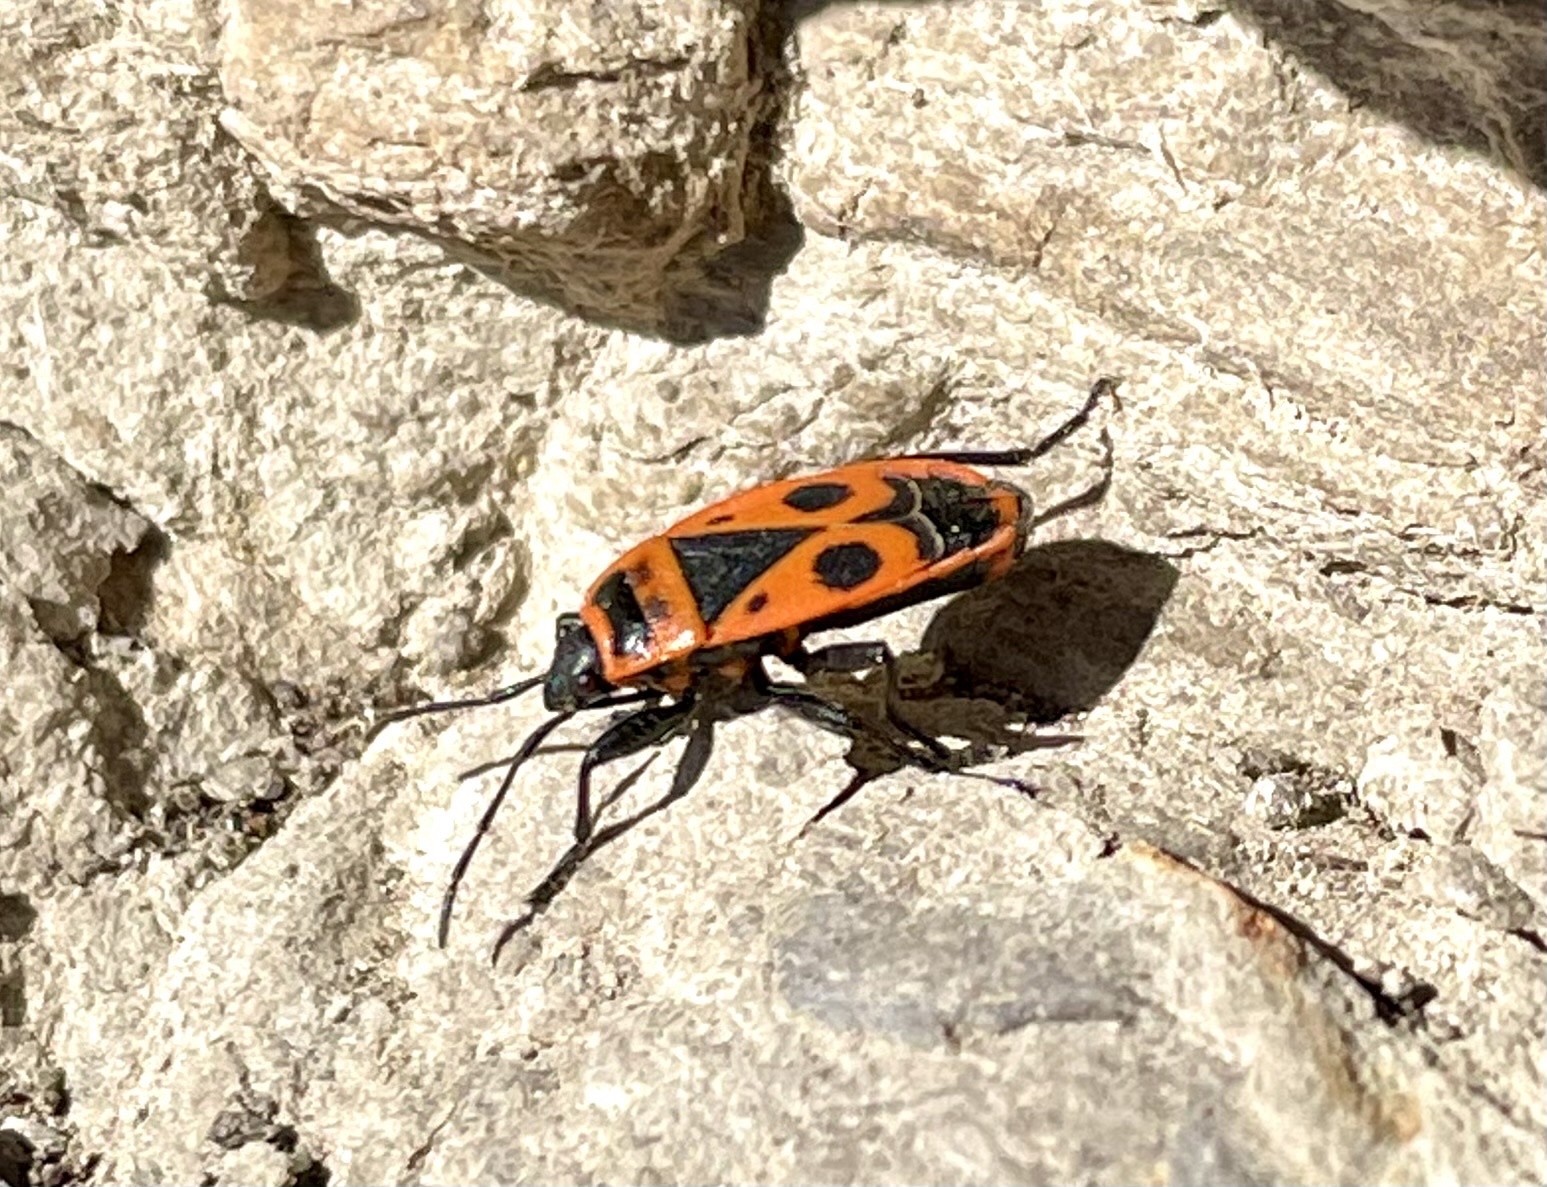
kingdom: Animalia
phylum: Arthropoda
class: Insecta
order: Hemiptera
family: Pyrrhocoridae
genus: Pyrrhocoris
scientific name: Pyrrhocoris apterus
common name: Firebug
